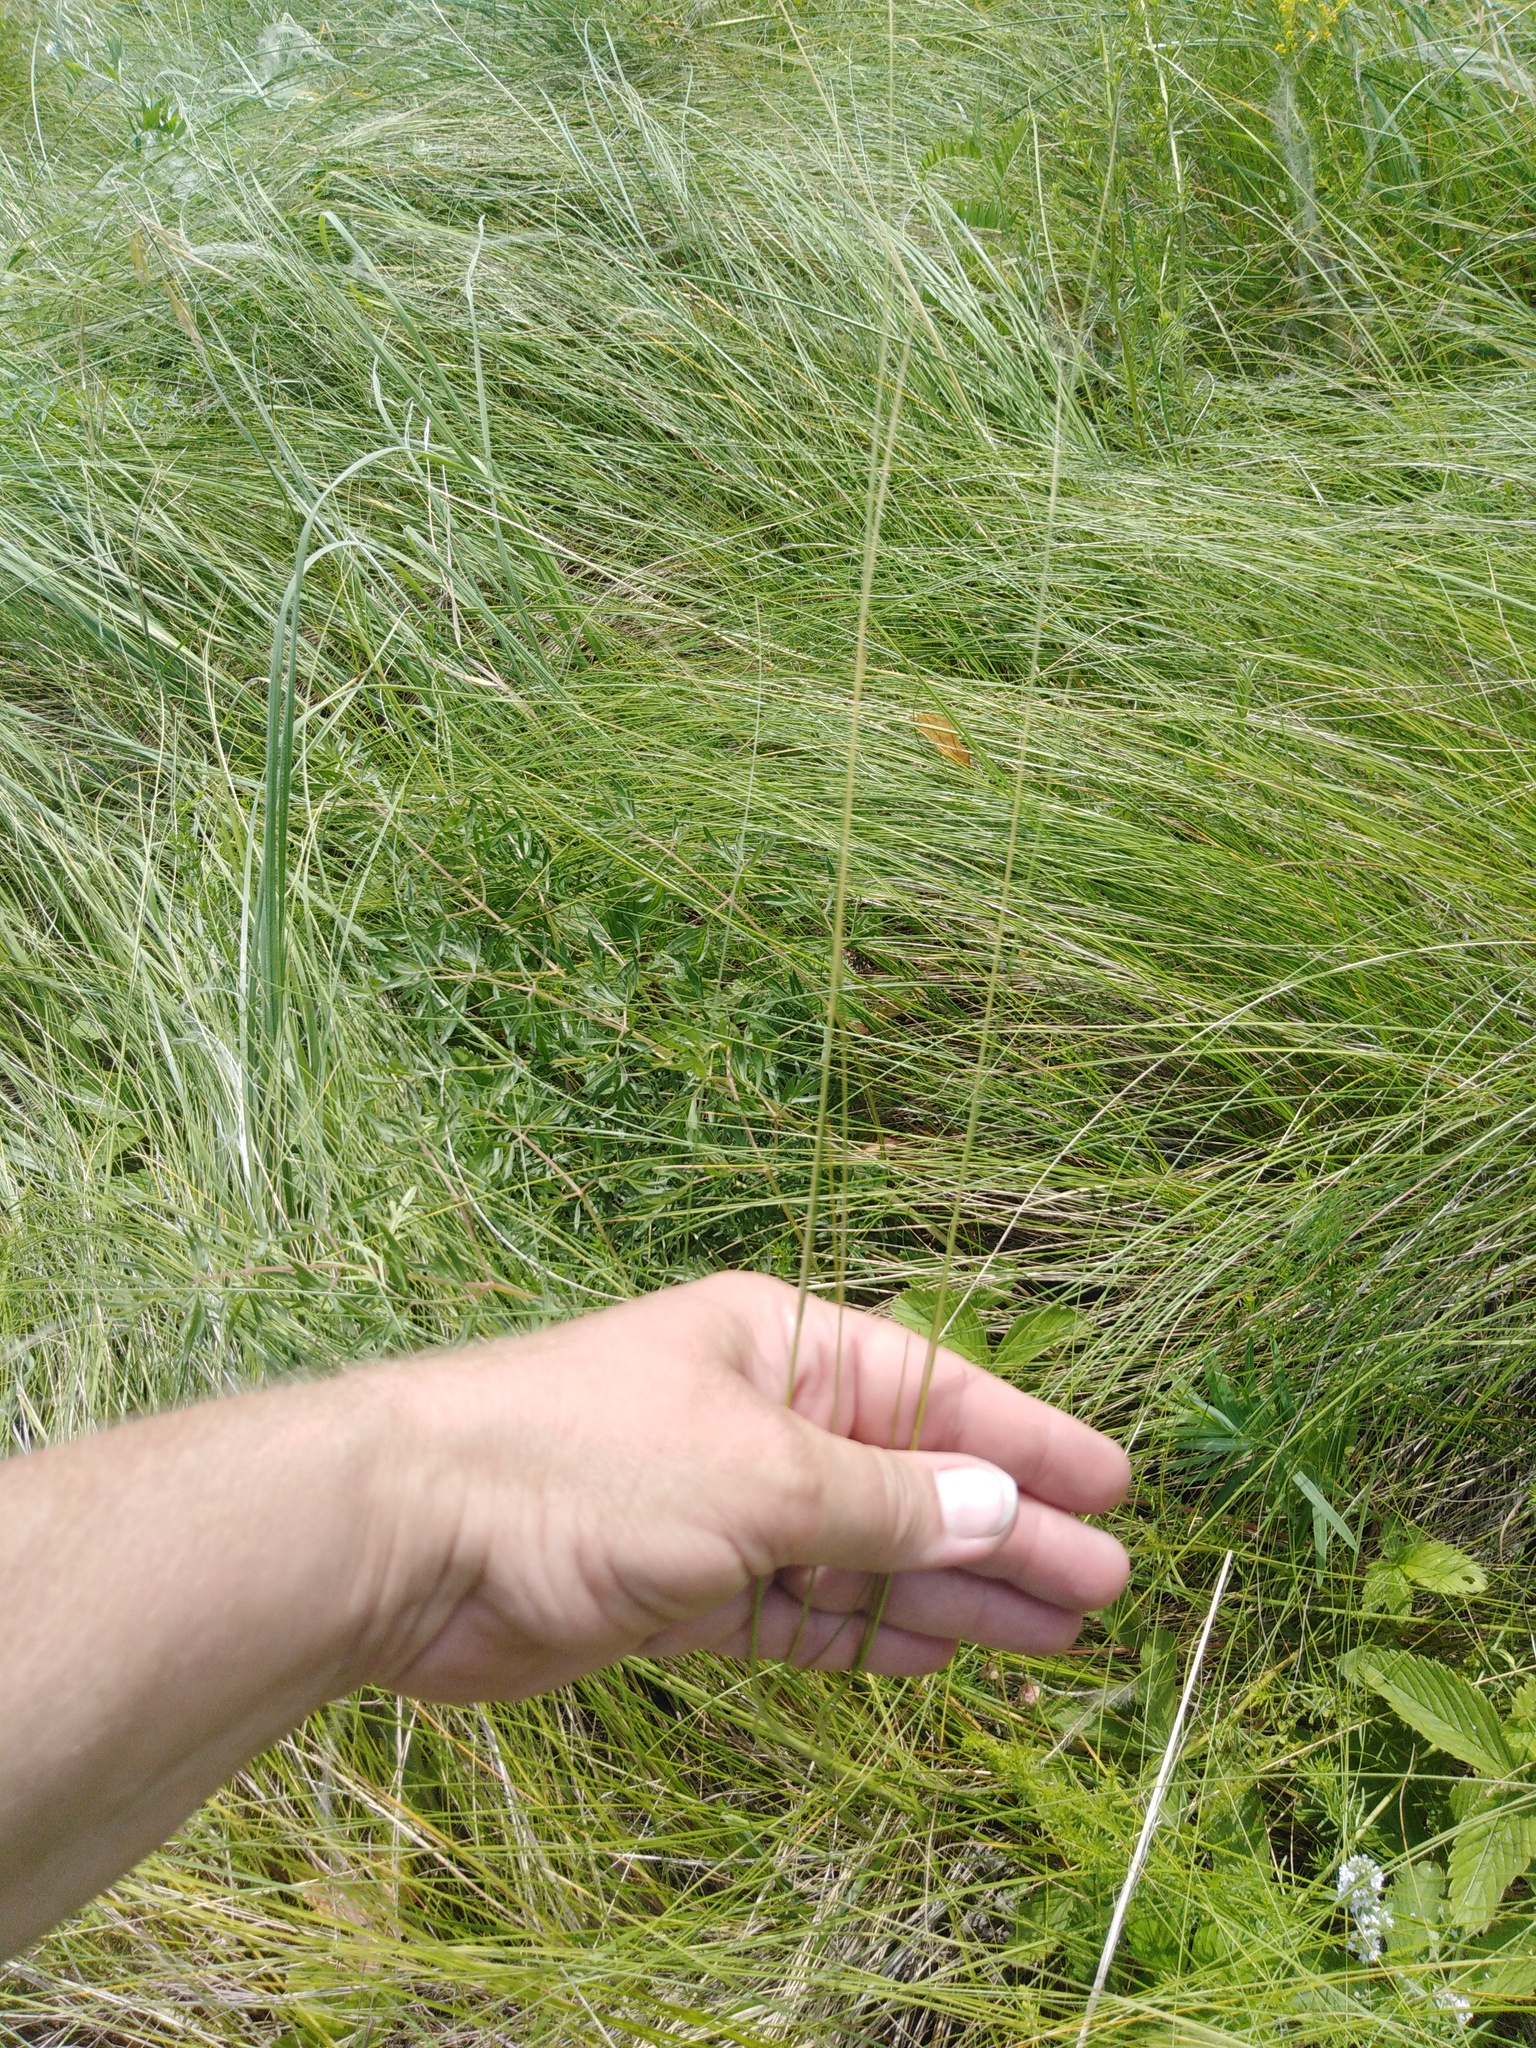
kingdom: Plantae
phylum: Tracheophyta
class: Liliopsida
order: Poales
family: Poaceae
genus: Stipa
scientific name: Stipa tirsa
